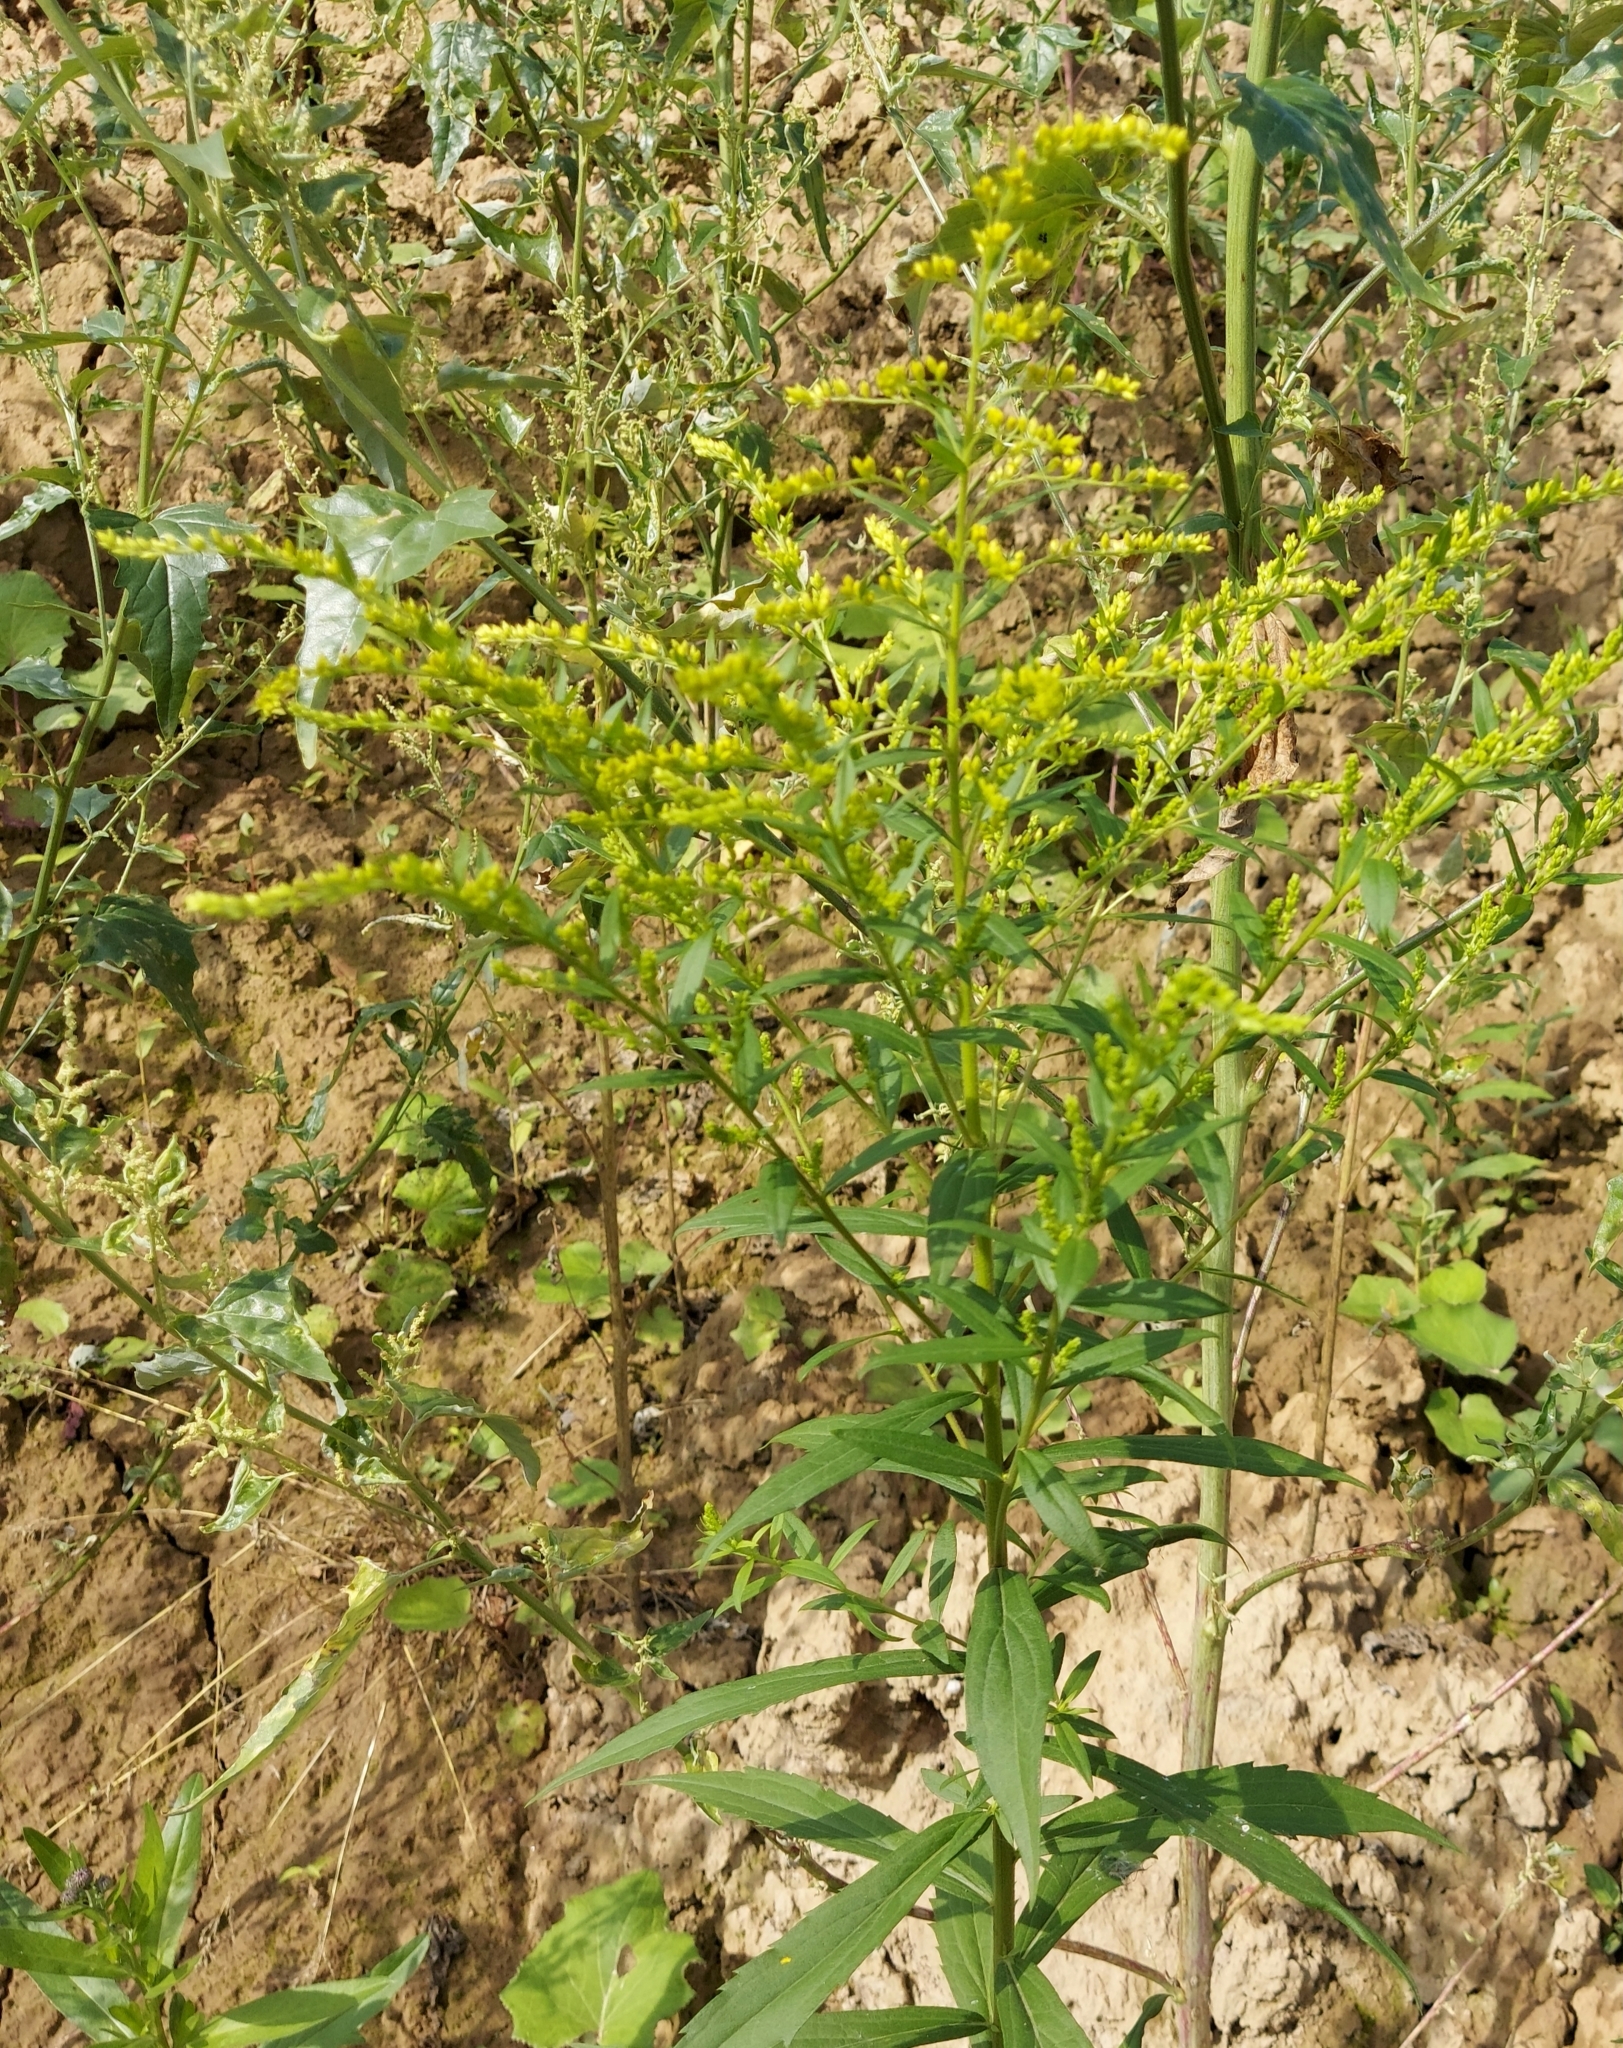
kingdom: Plantae
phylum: Tracheophyta
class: Magnoliopsida
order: Asterales
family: Asteraceae
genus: Solidago
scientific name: Solidago canadensis
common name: Canada goldenrod
